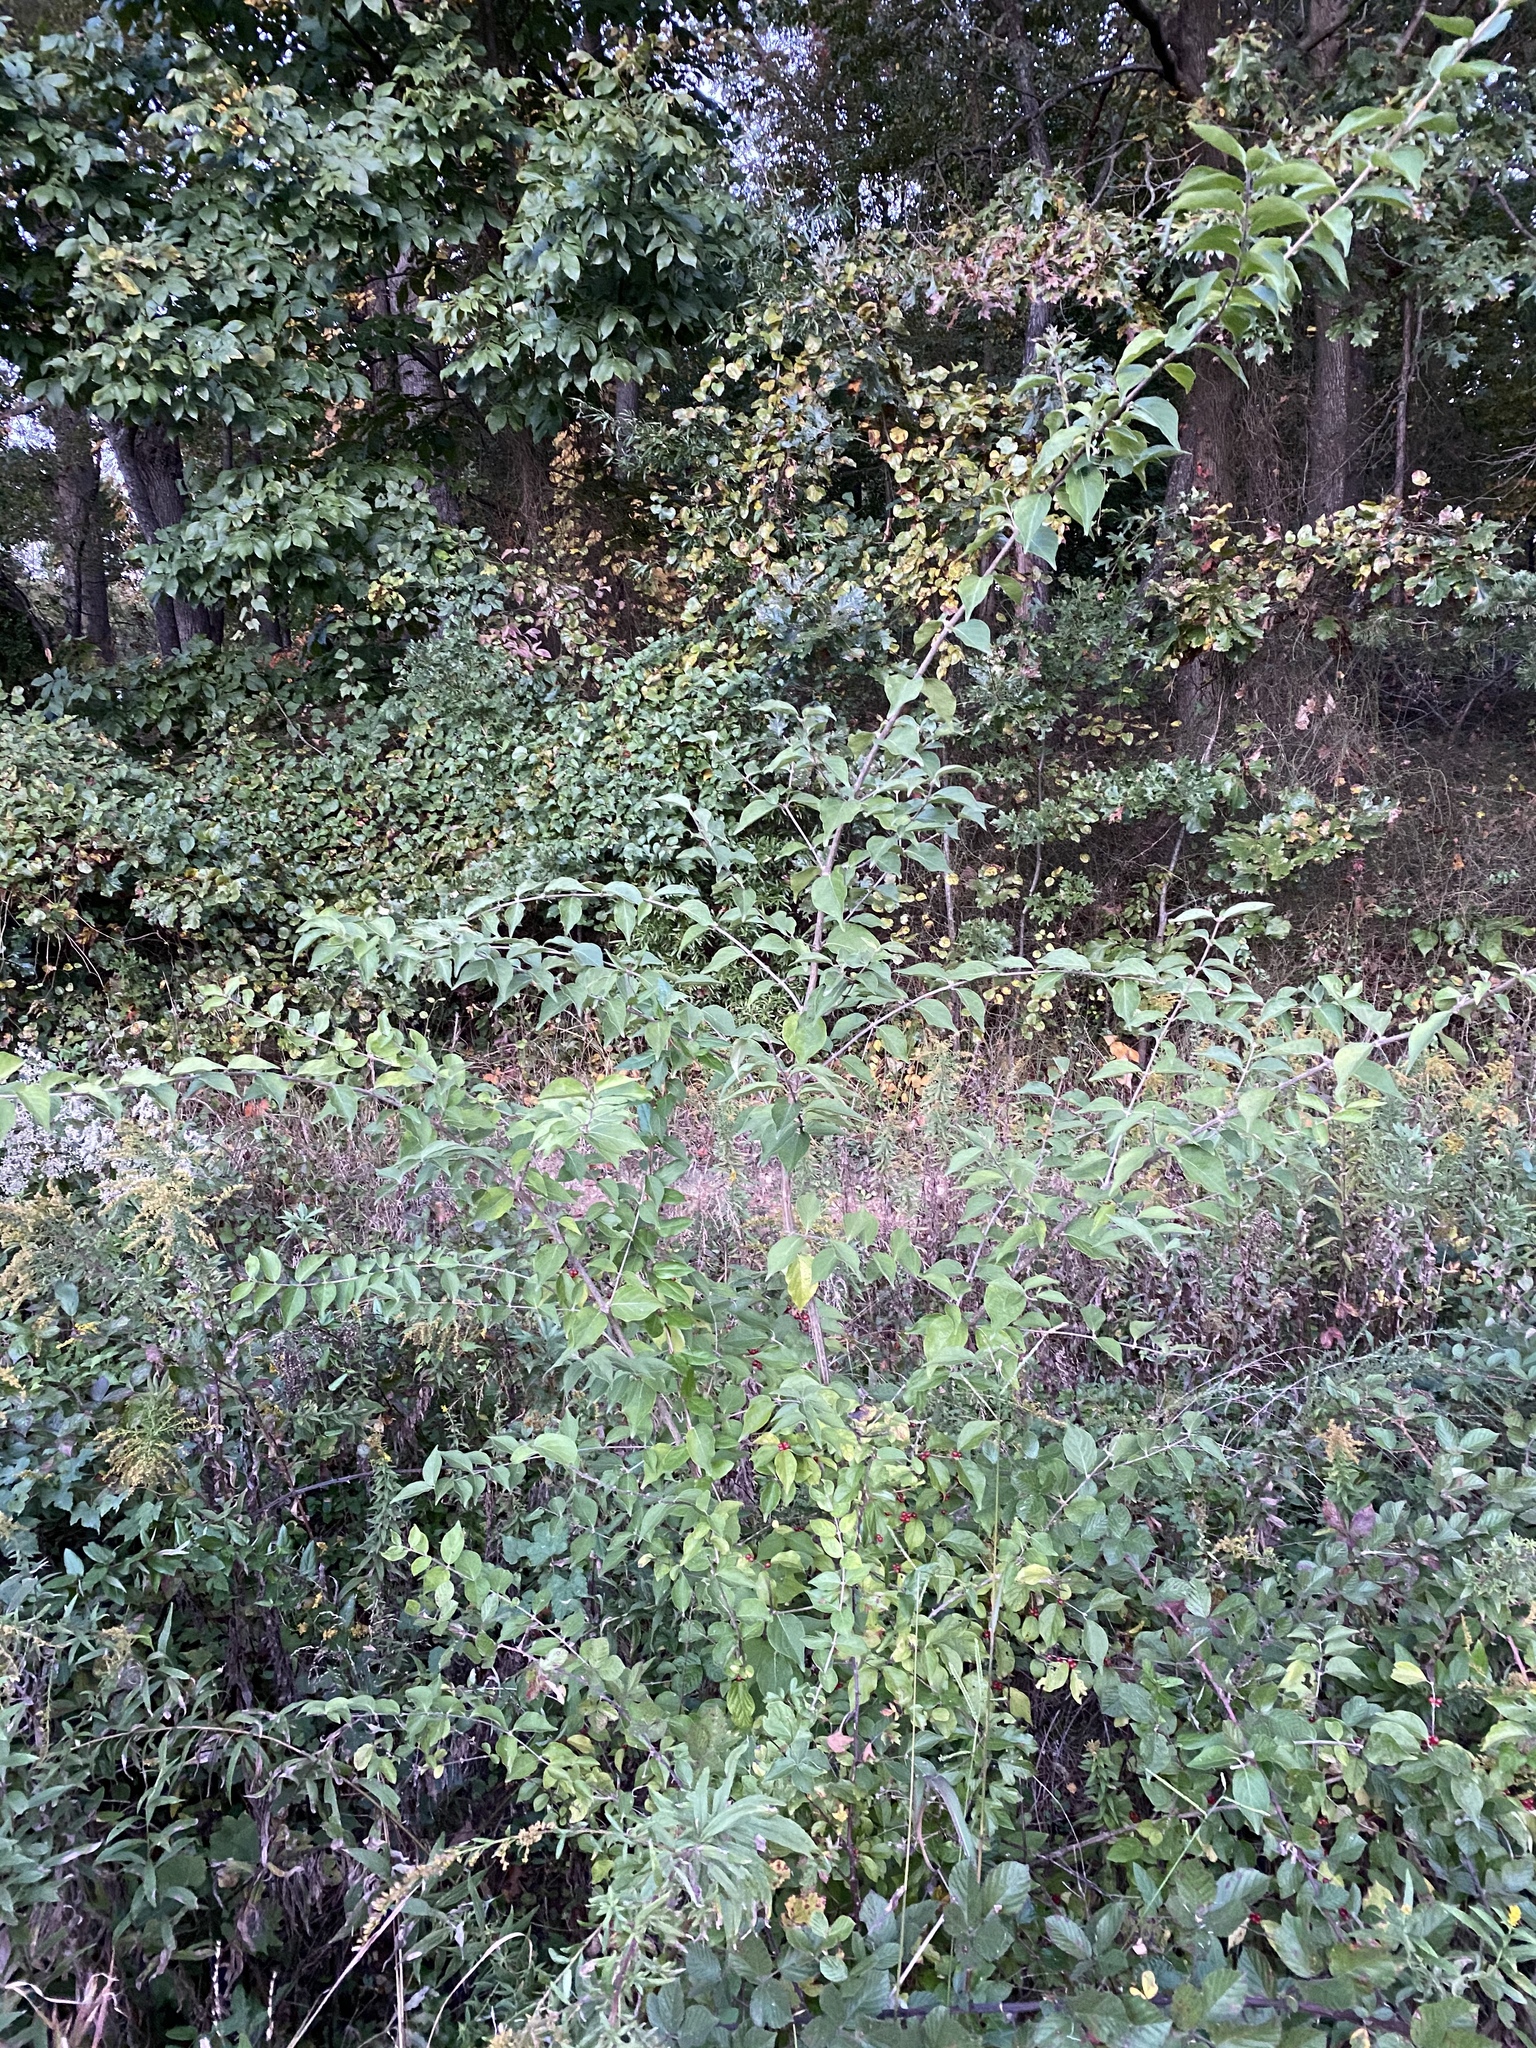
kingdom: Plantae
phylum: Tracheophyta
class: Magnoliopsida
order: Dipsacales
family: Caprifoliaceae
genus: Lonicera
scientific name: Lonicera maackii
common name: Amur honeysuckle
